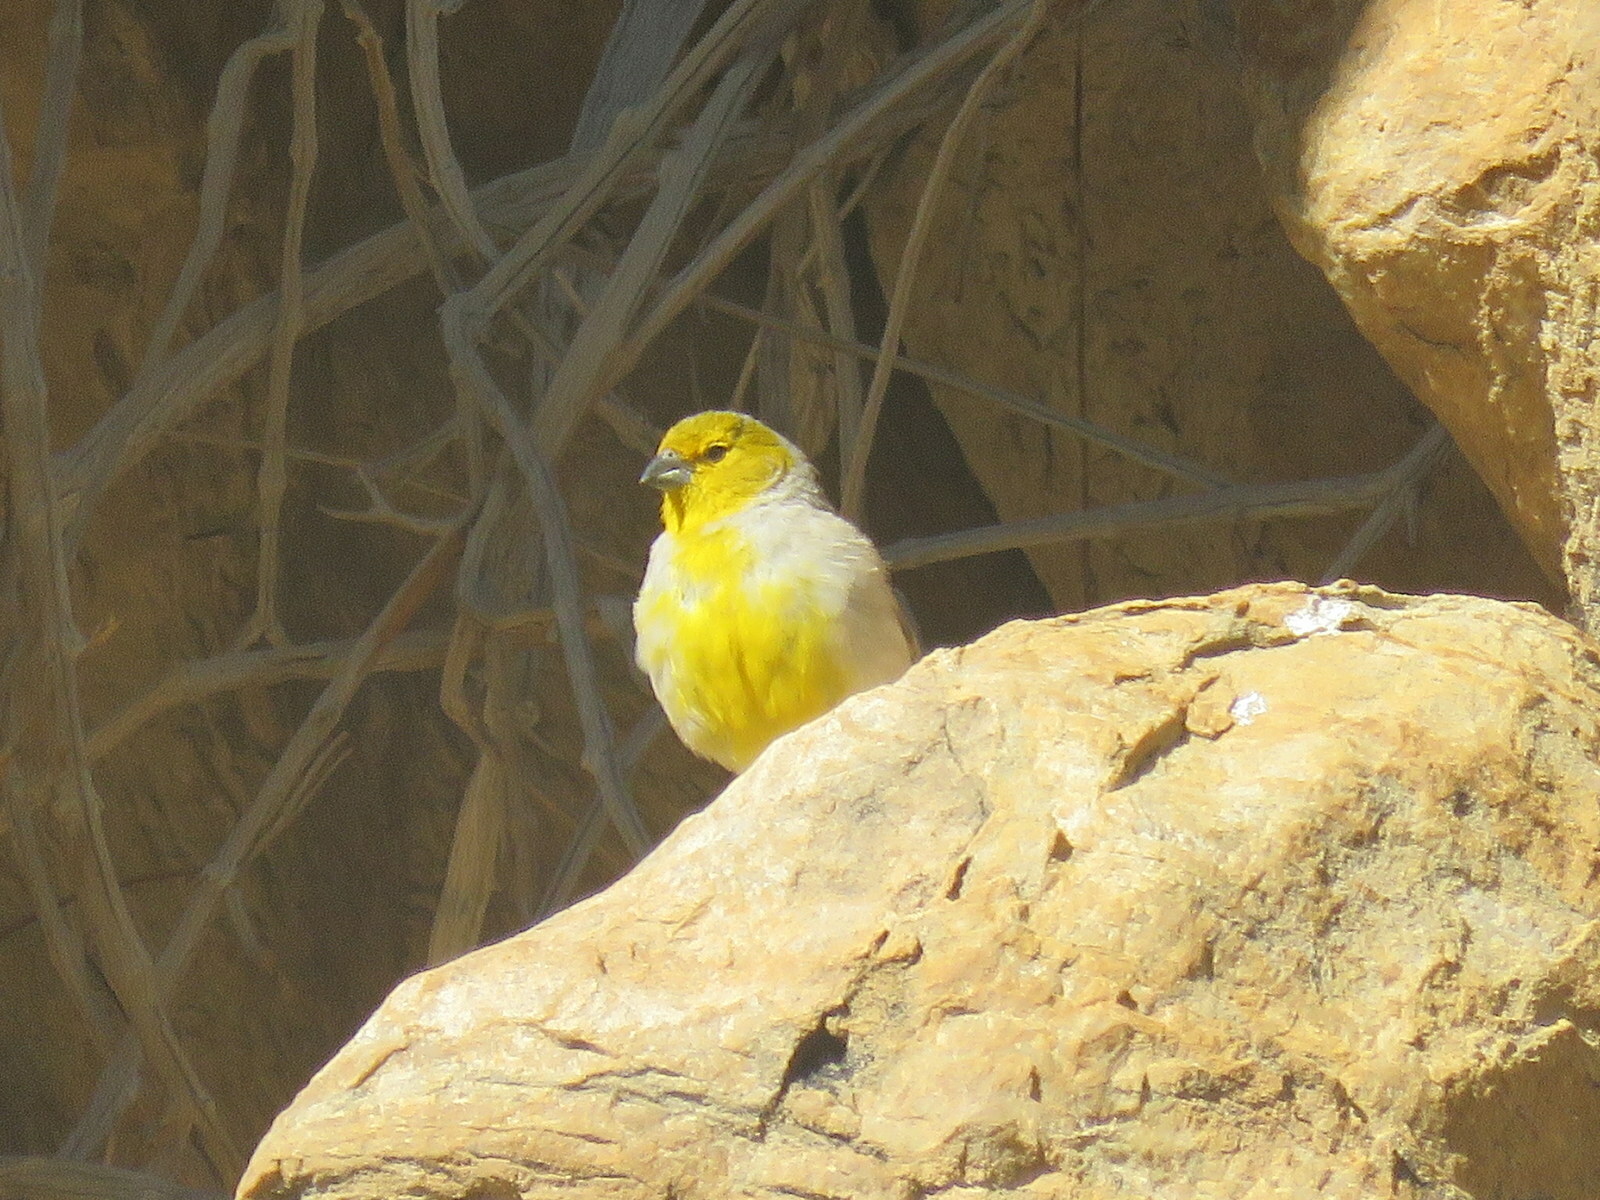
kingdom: Animalia
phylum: Chordata
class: Aves
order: Passeriformes
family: Thraupidae
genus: Sicalis
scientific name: Sicalis luteocephala
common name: Citron-headed yellow finch
